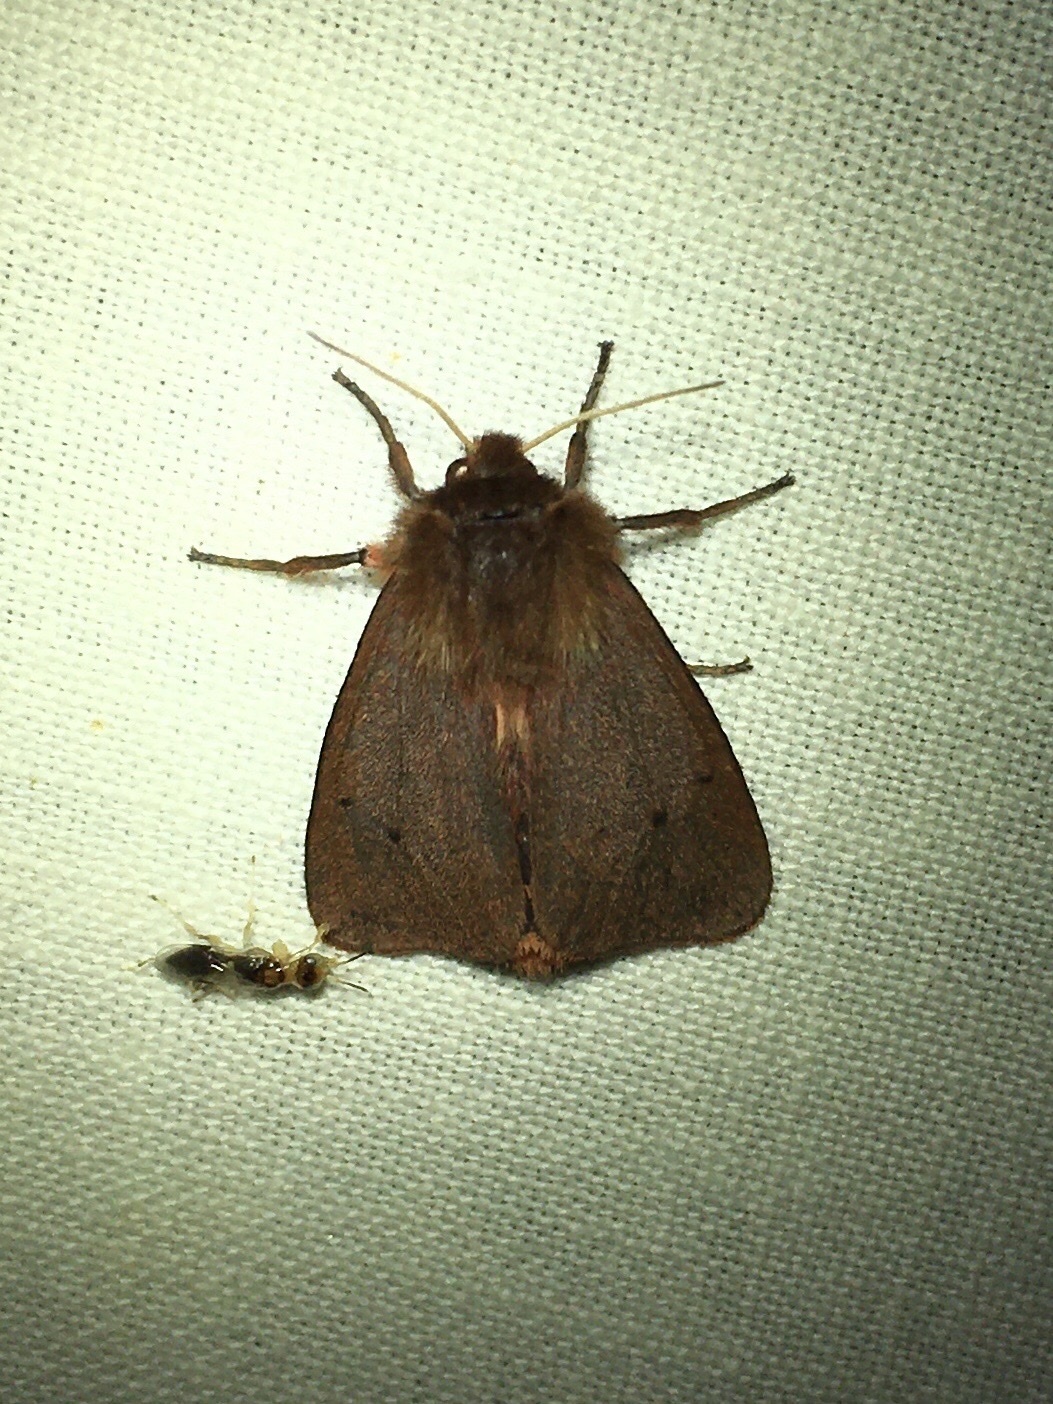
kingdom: Animalia
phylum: Arthropoda
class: Insecta
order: Lepidoptera
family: Erebidae
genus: Phragmatobia
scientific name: Phragmatobia fuliginosa
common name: Ruby tiger
